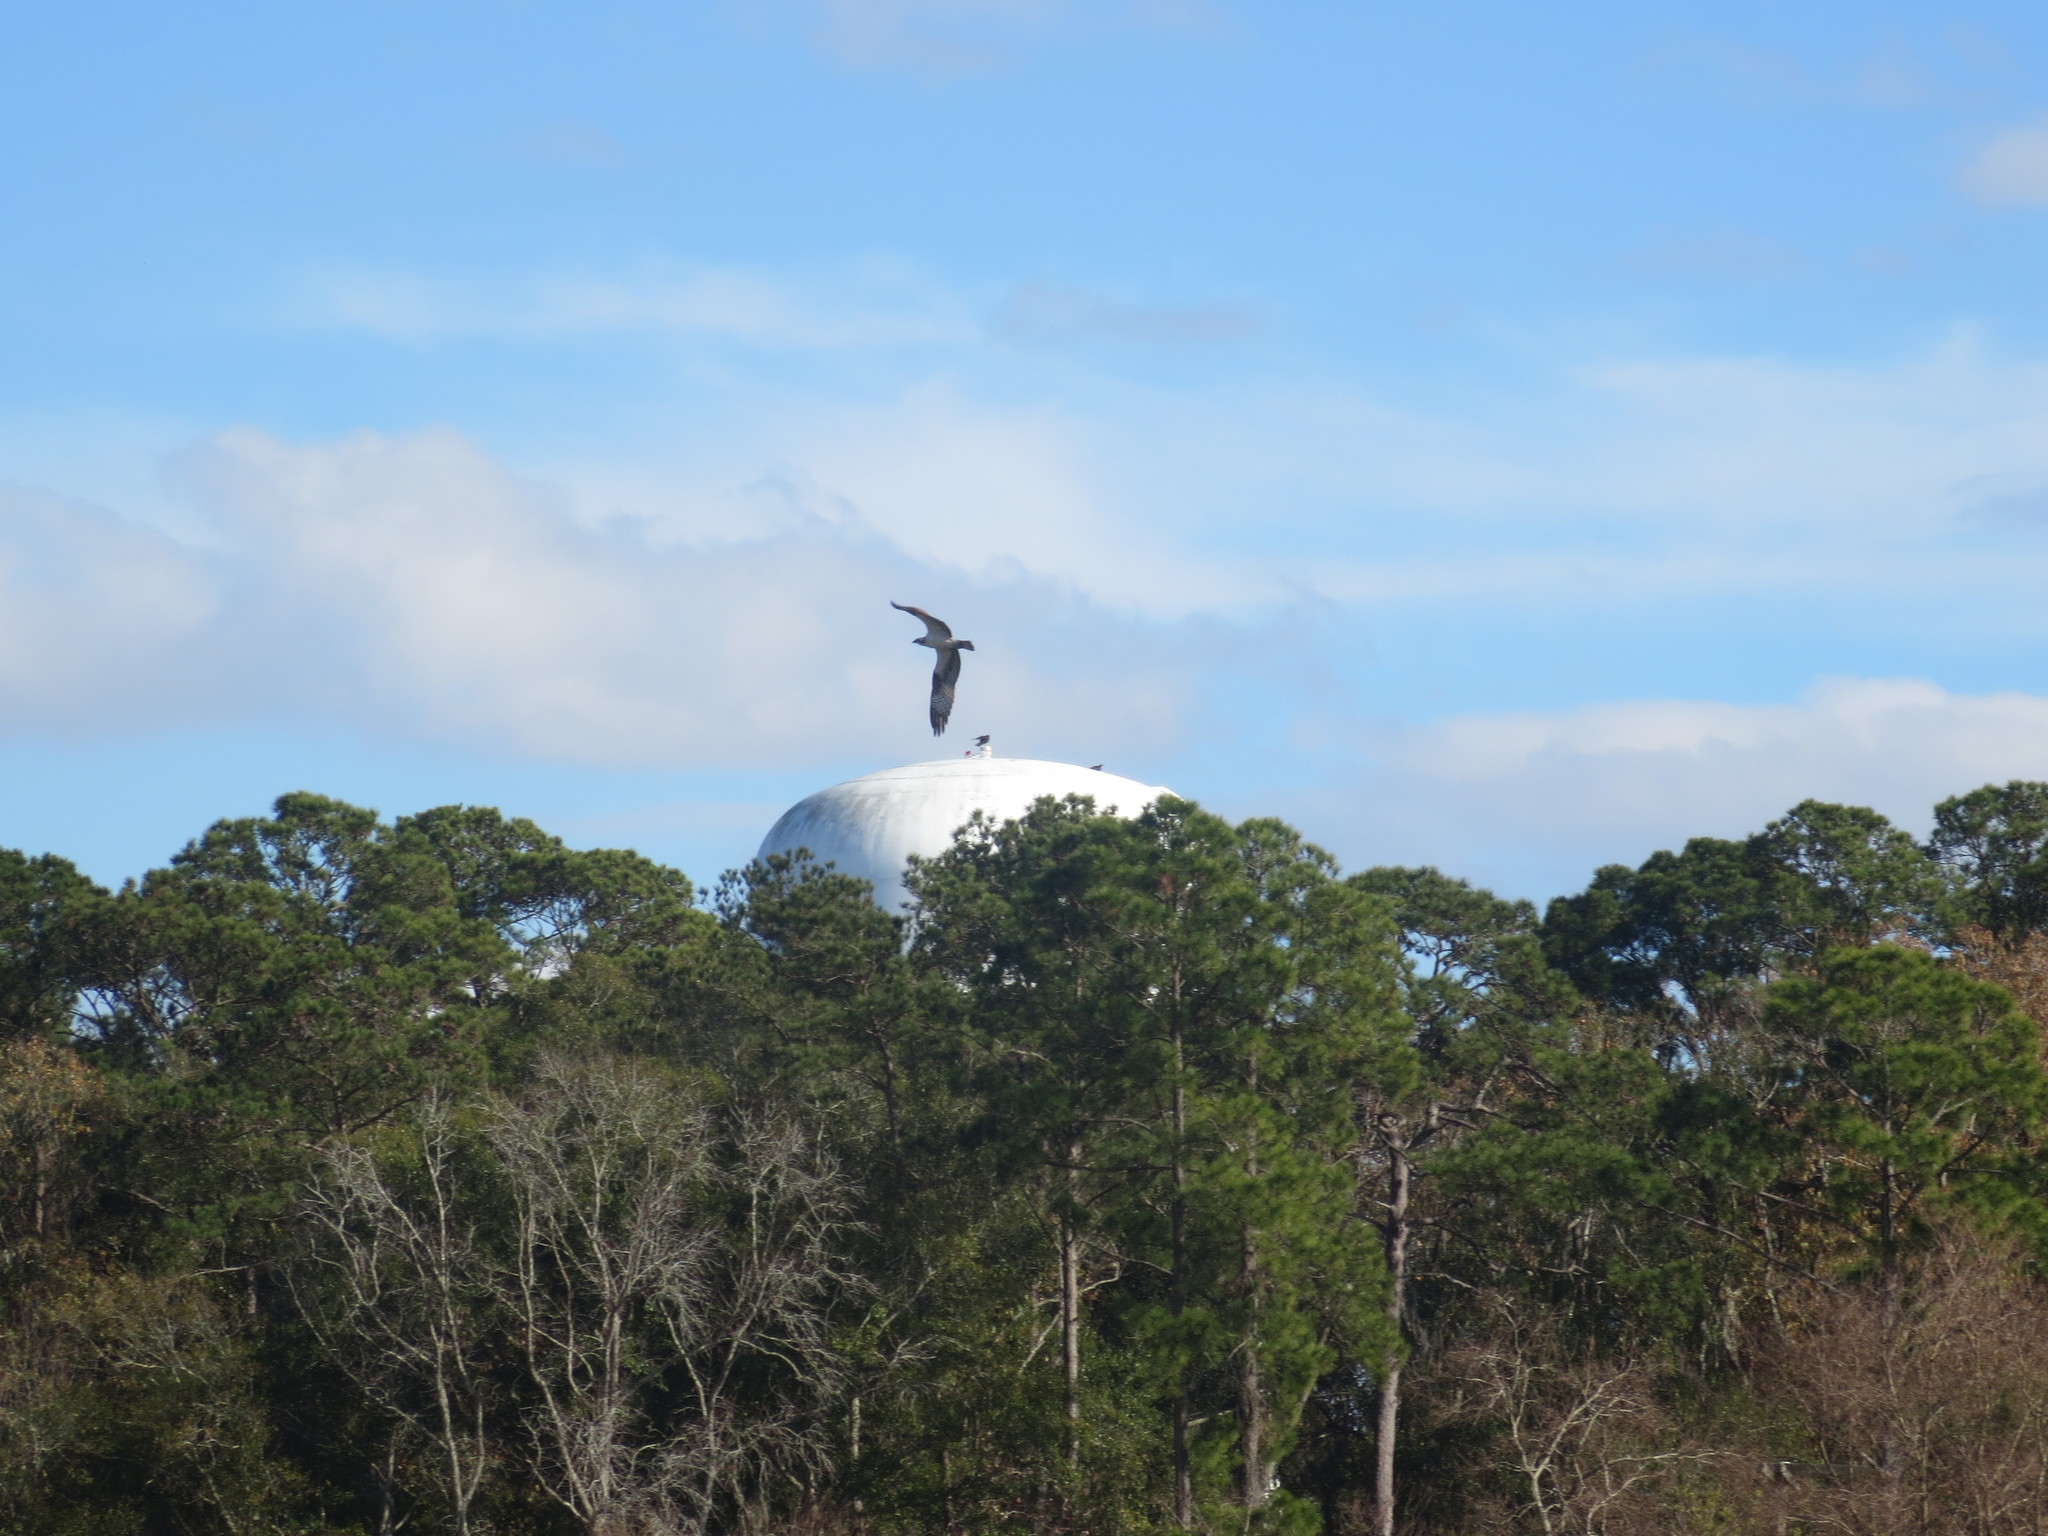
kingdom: Animalia
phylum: Chordata
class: Aves
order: Accipitriformes
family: Pandionidae
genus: Pandion
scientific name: Pandion haliaetus
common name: Osprey
